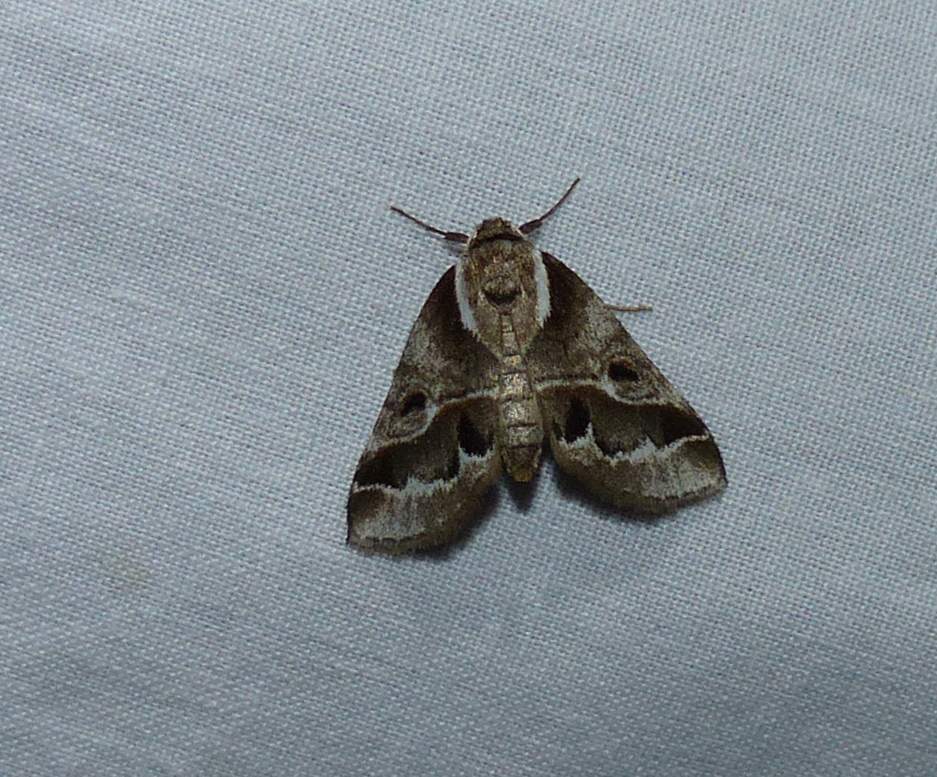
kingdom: Animalia
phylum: Arthropoda
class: Insecta
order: Lepidoptera
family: Nolidae
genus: Baileya
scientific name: Baileya doubledayi
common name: Doubleday's baileya moth
